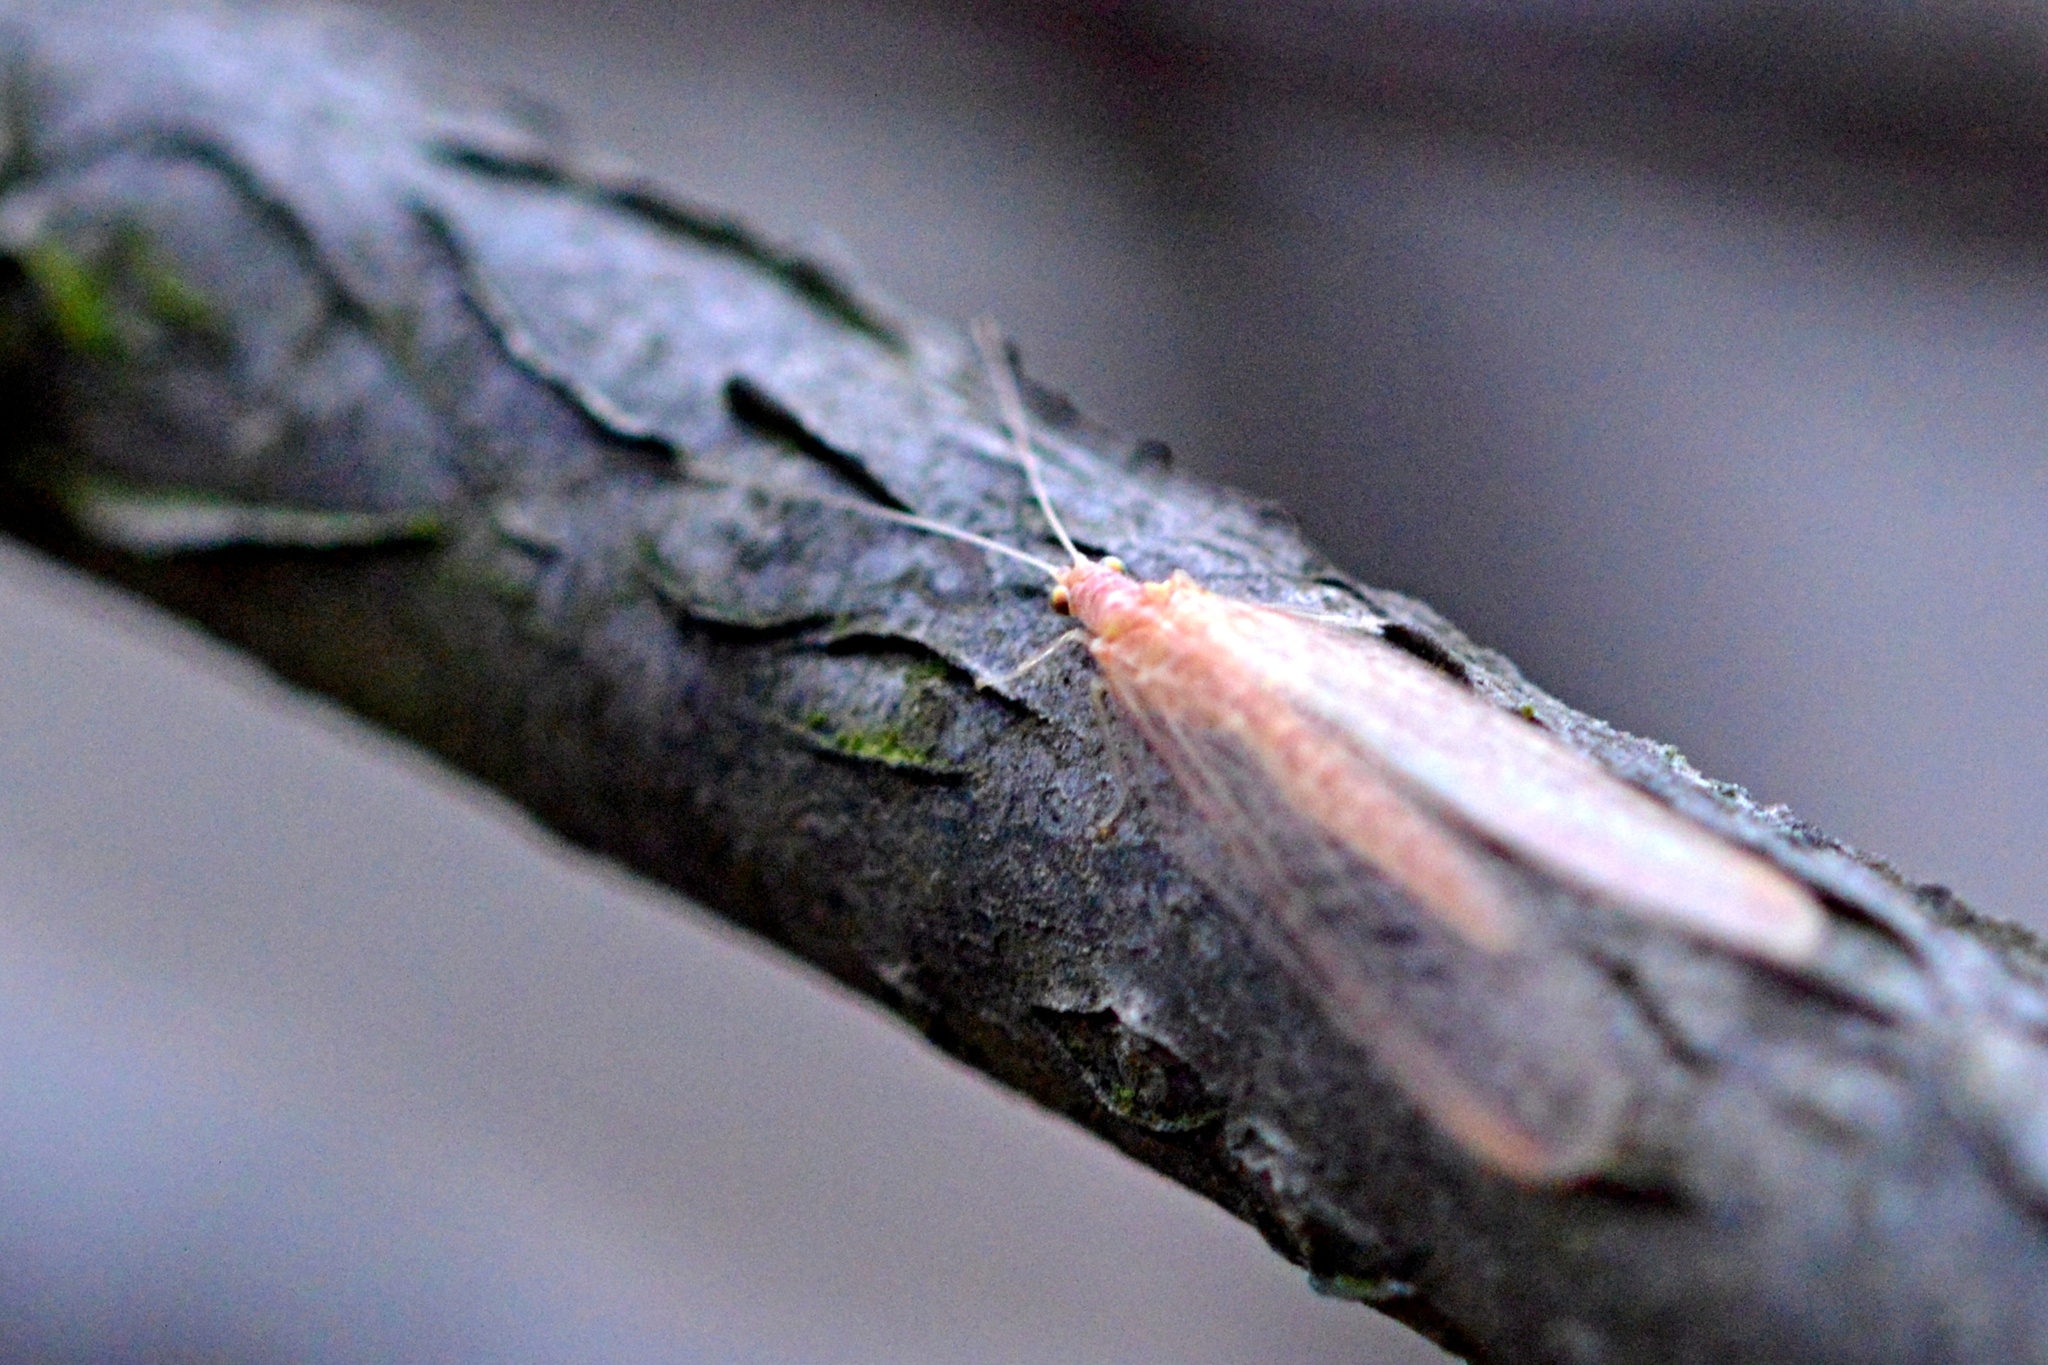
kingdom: Animalia
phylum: Arthropoda
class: Insecta
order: Neuroptera
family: Chrysopidae
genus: Chrysoperla
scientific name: Chrysoperla
